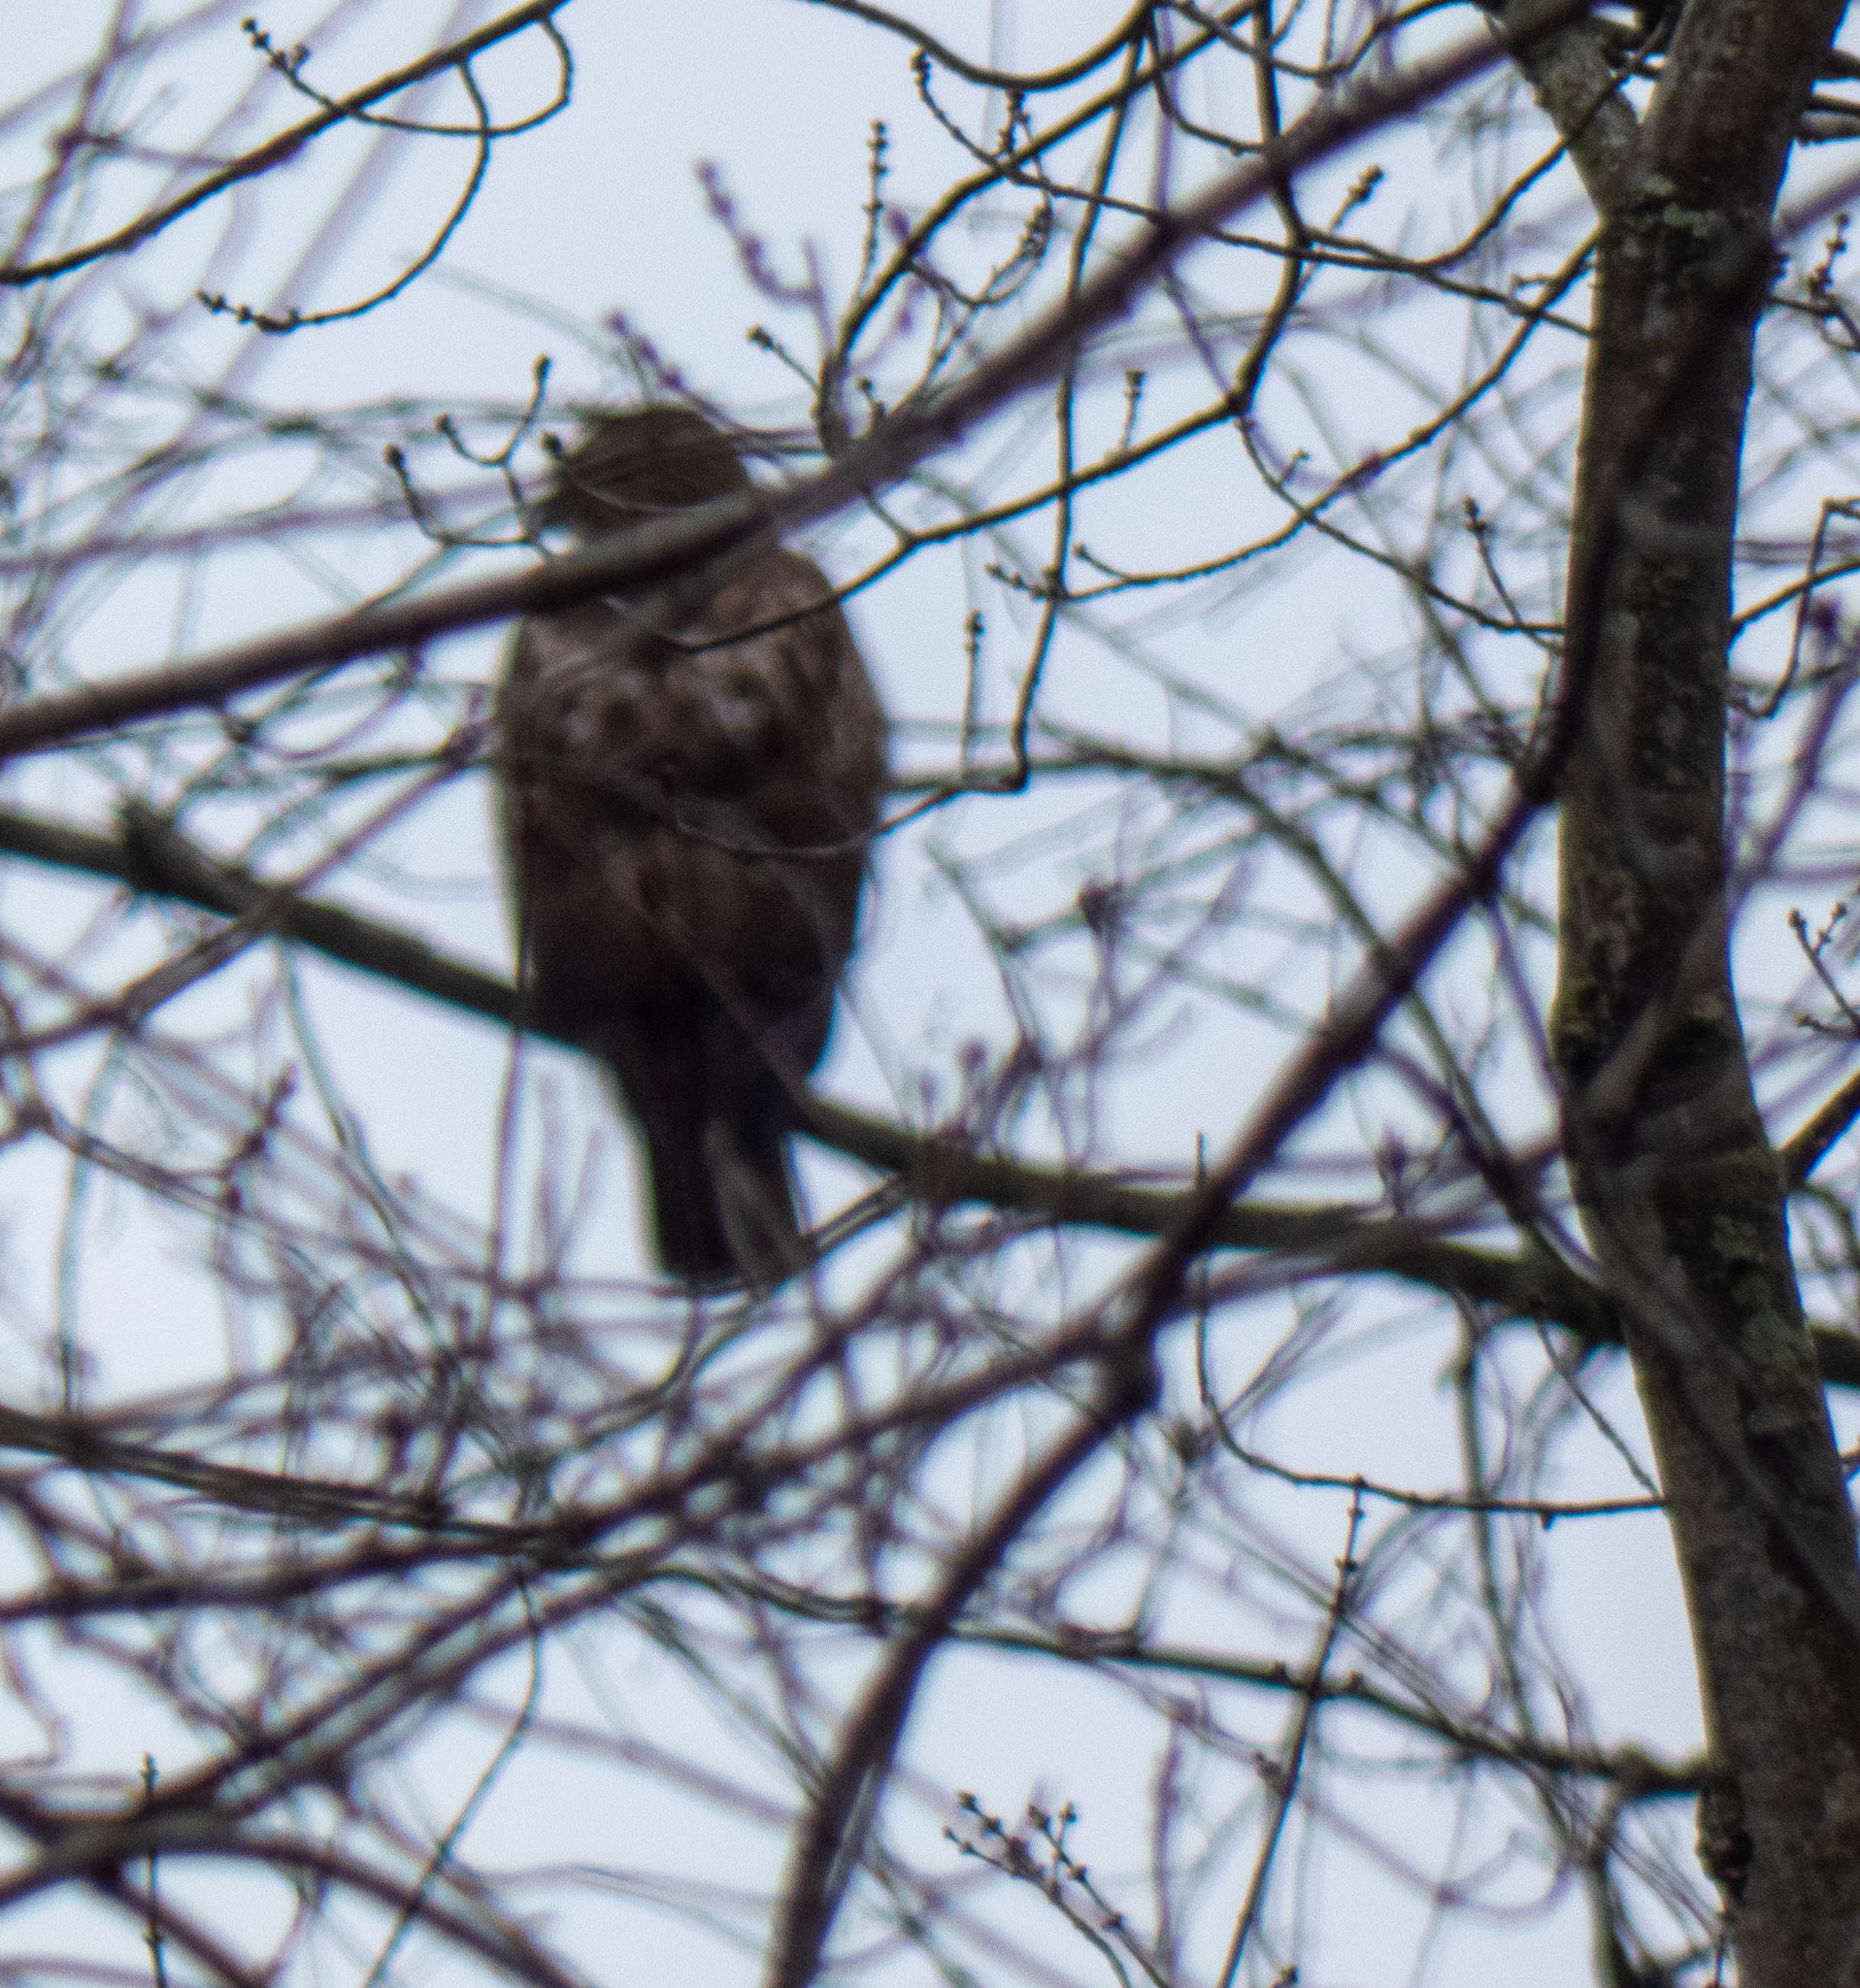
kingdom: Animalia
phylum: Chordata
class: Aves
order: Accipitriformes
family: Accipitridae
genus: Buteo
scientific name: Buteo jamaicensis
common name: Red-tailed hawk
